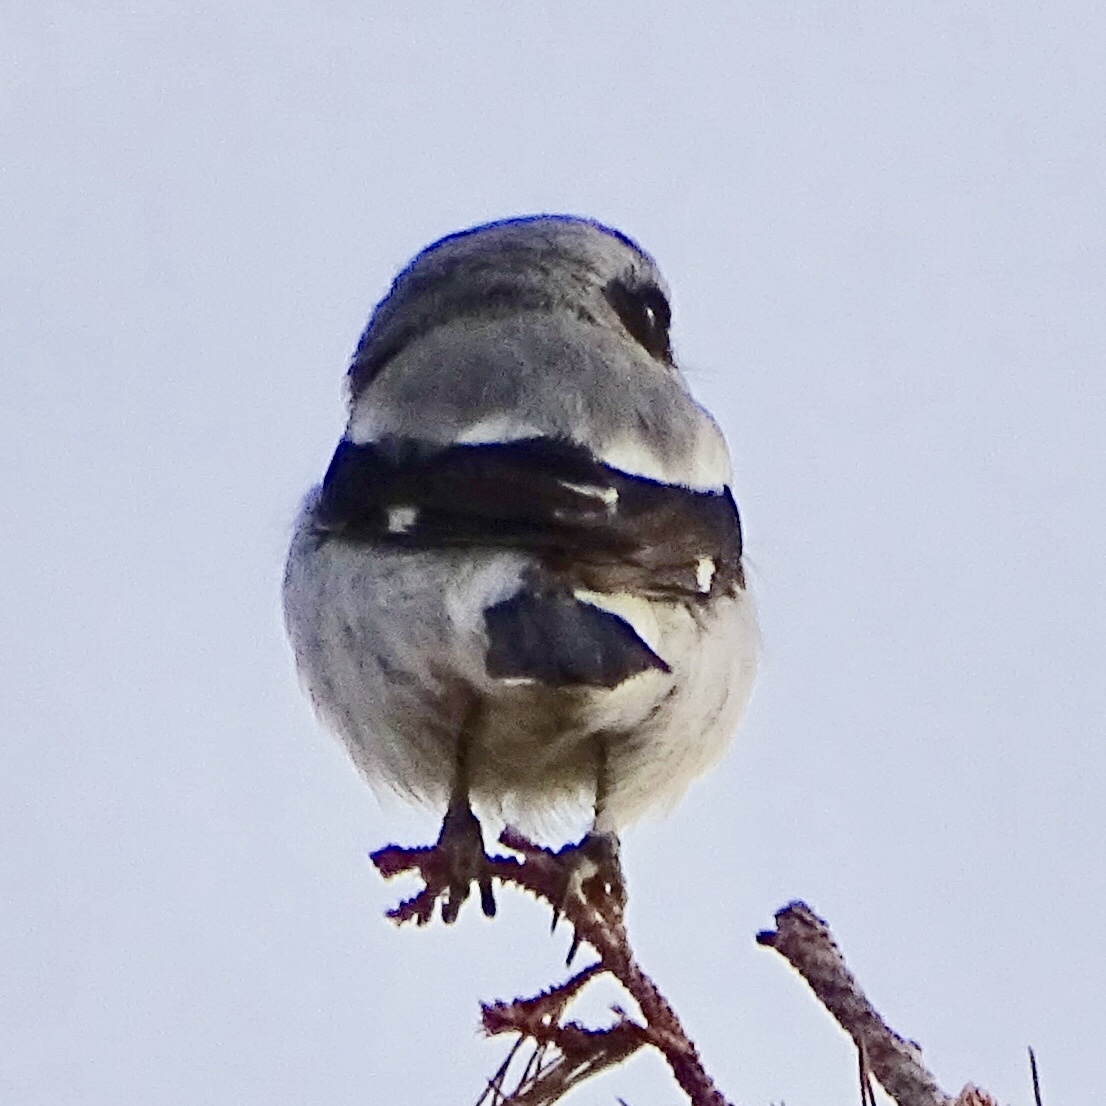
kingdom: Animalia
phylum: Chordata
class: Aves
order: Passeriformes
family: Laniidae
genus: Lanius
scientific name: Lanius ludovicianus
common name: Loggerhead shrike
